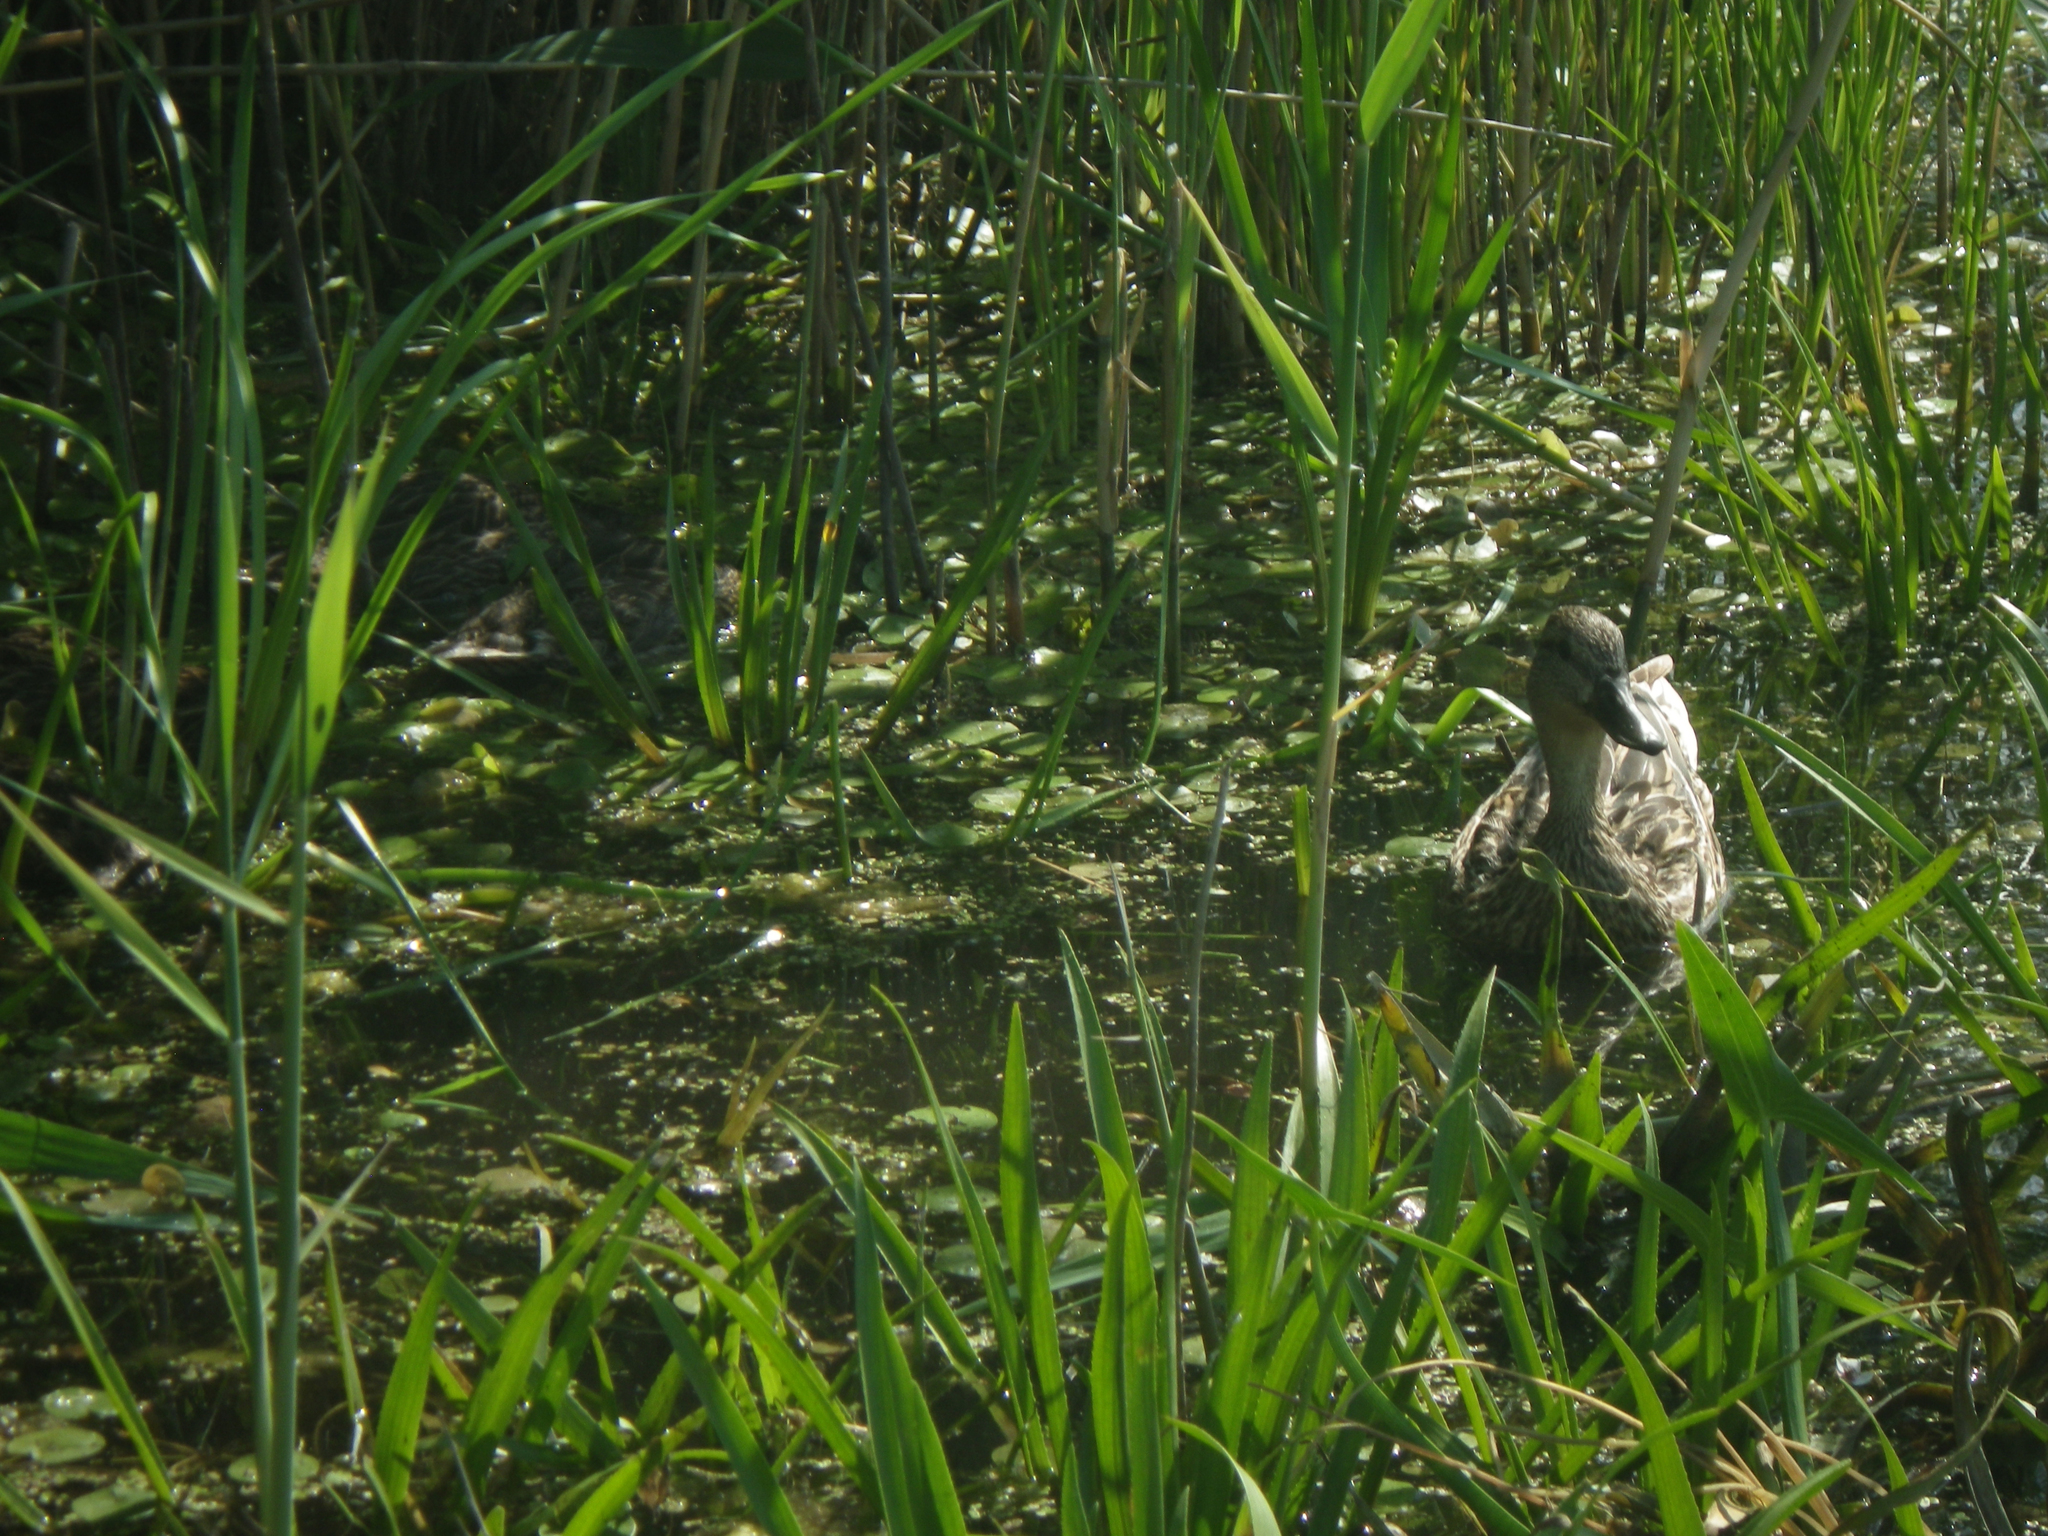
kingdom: Animalia
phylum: Chordata
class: Aves
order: Anseriformes
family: Anatidae
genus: Anas
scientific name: Anas platyrhynchos
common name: Mallard
